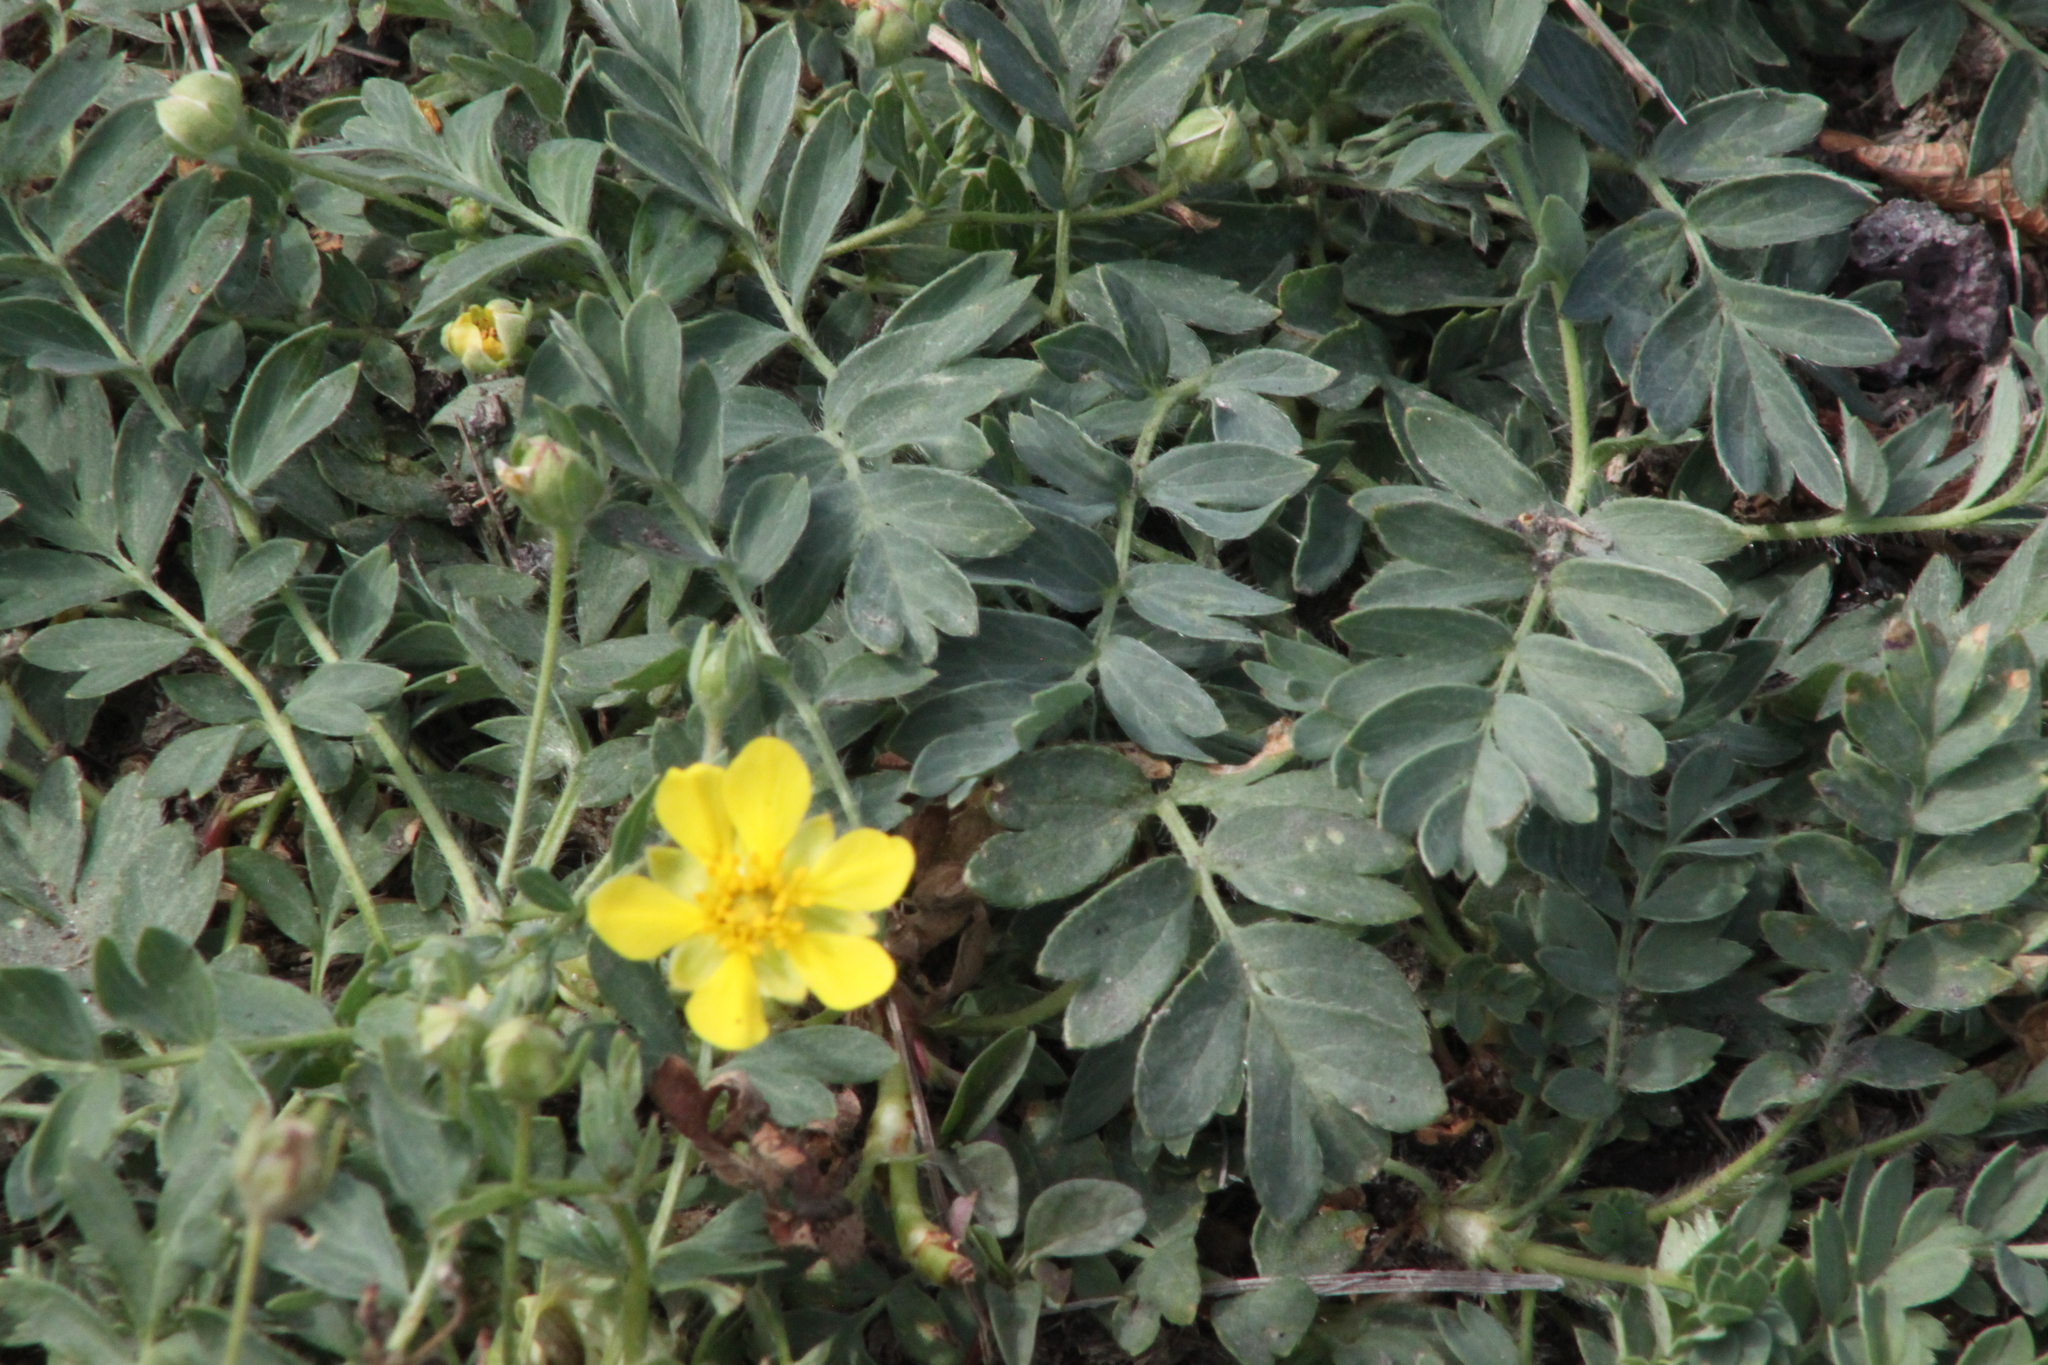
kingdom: Plantae
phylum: Tracheophyta
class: Magnoliopsida
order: Rosales
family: Rosaceae
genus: Sibbaldianthe
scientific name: Sibbaldianthe bifurca
